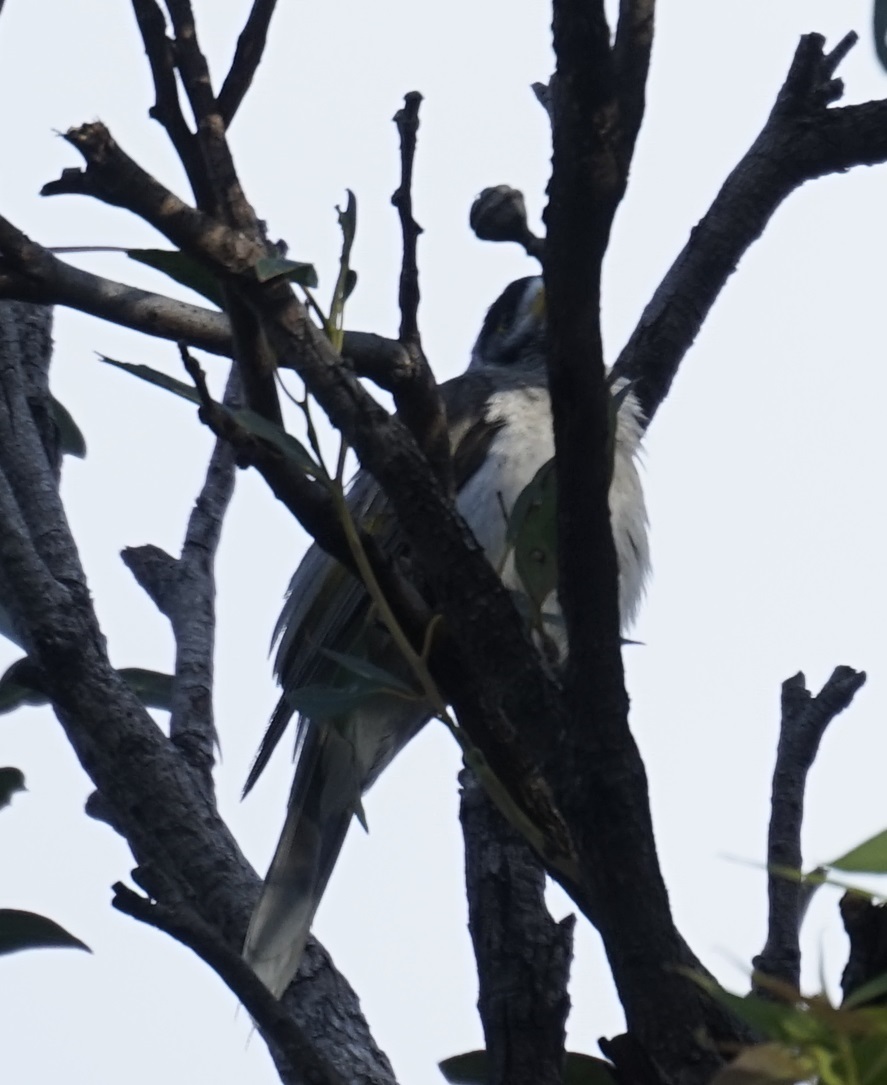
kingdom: Animalia
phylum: Chordata
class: Aves
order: Passeriformes
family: Meliphagidae
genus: Manorina
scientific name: Manorina melanocephala
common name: Noisy miner
